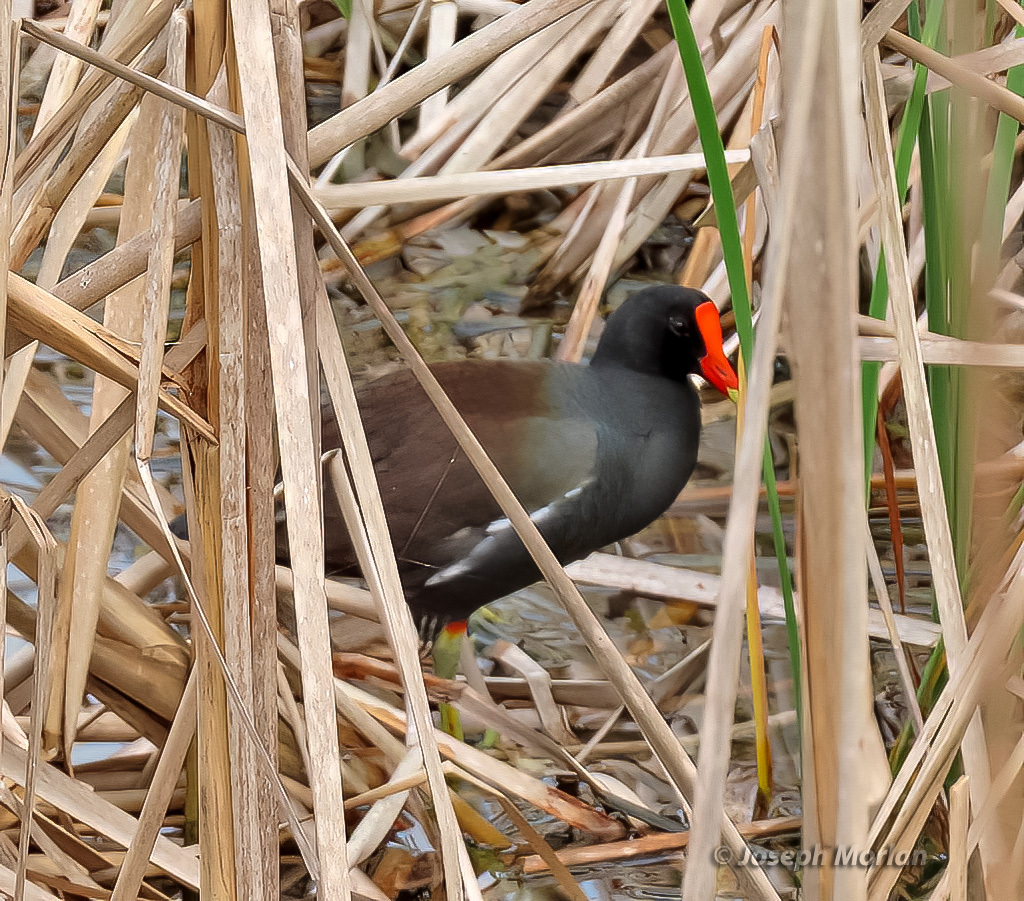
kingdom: Animalia
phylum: Chordata
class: Aves
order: Gruiformes
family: Rallidae
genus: Gallinula
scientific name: Gallinula chloropus
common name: Common moorhen
